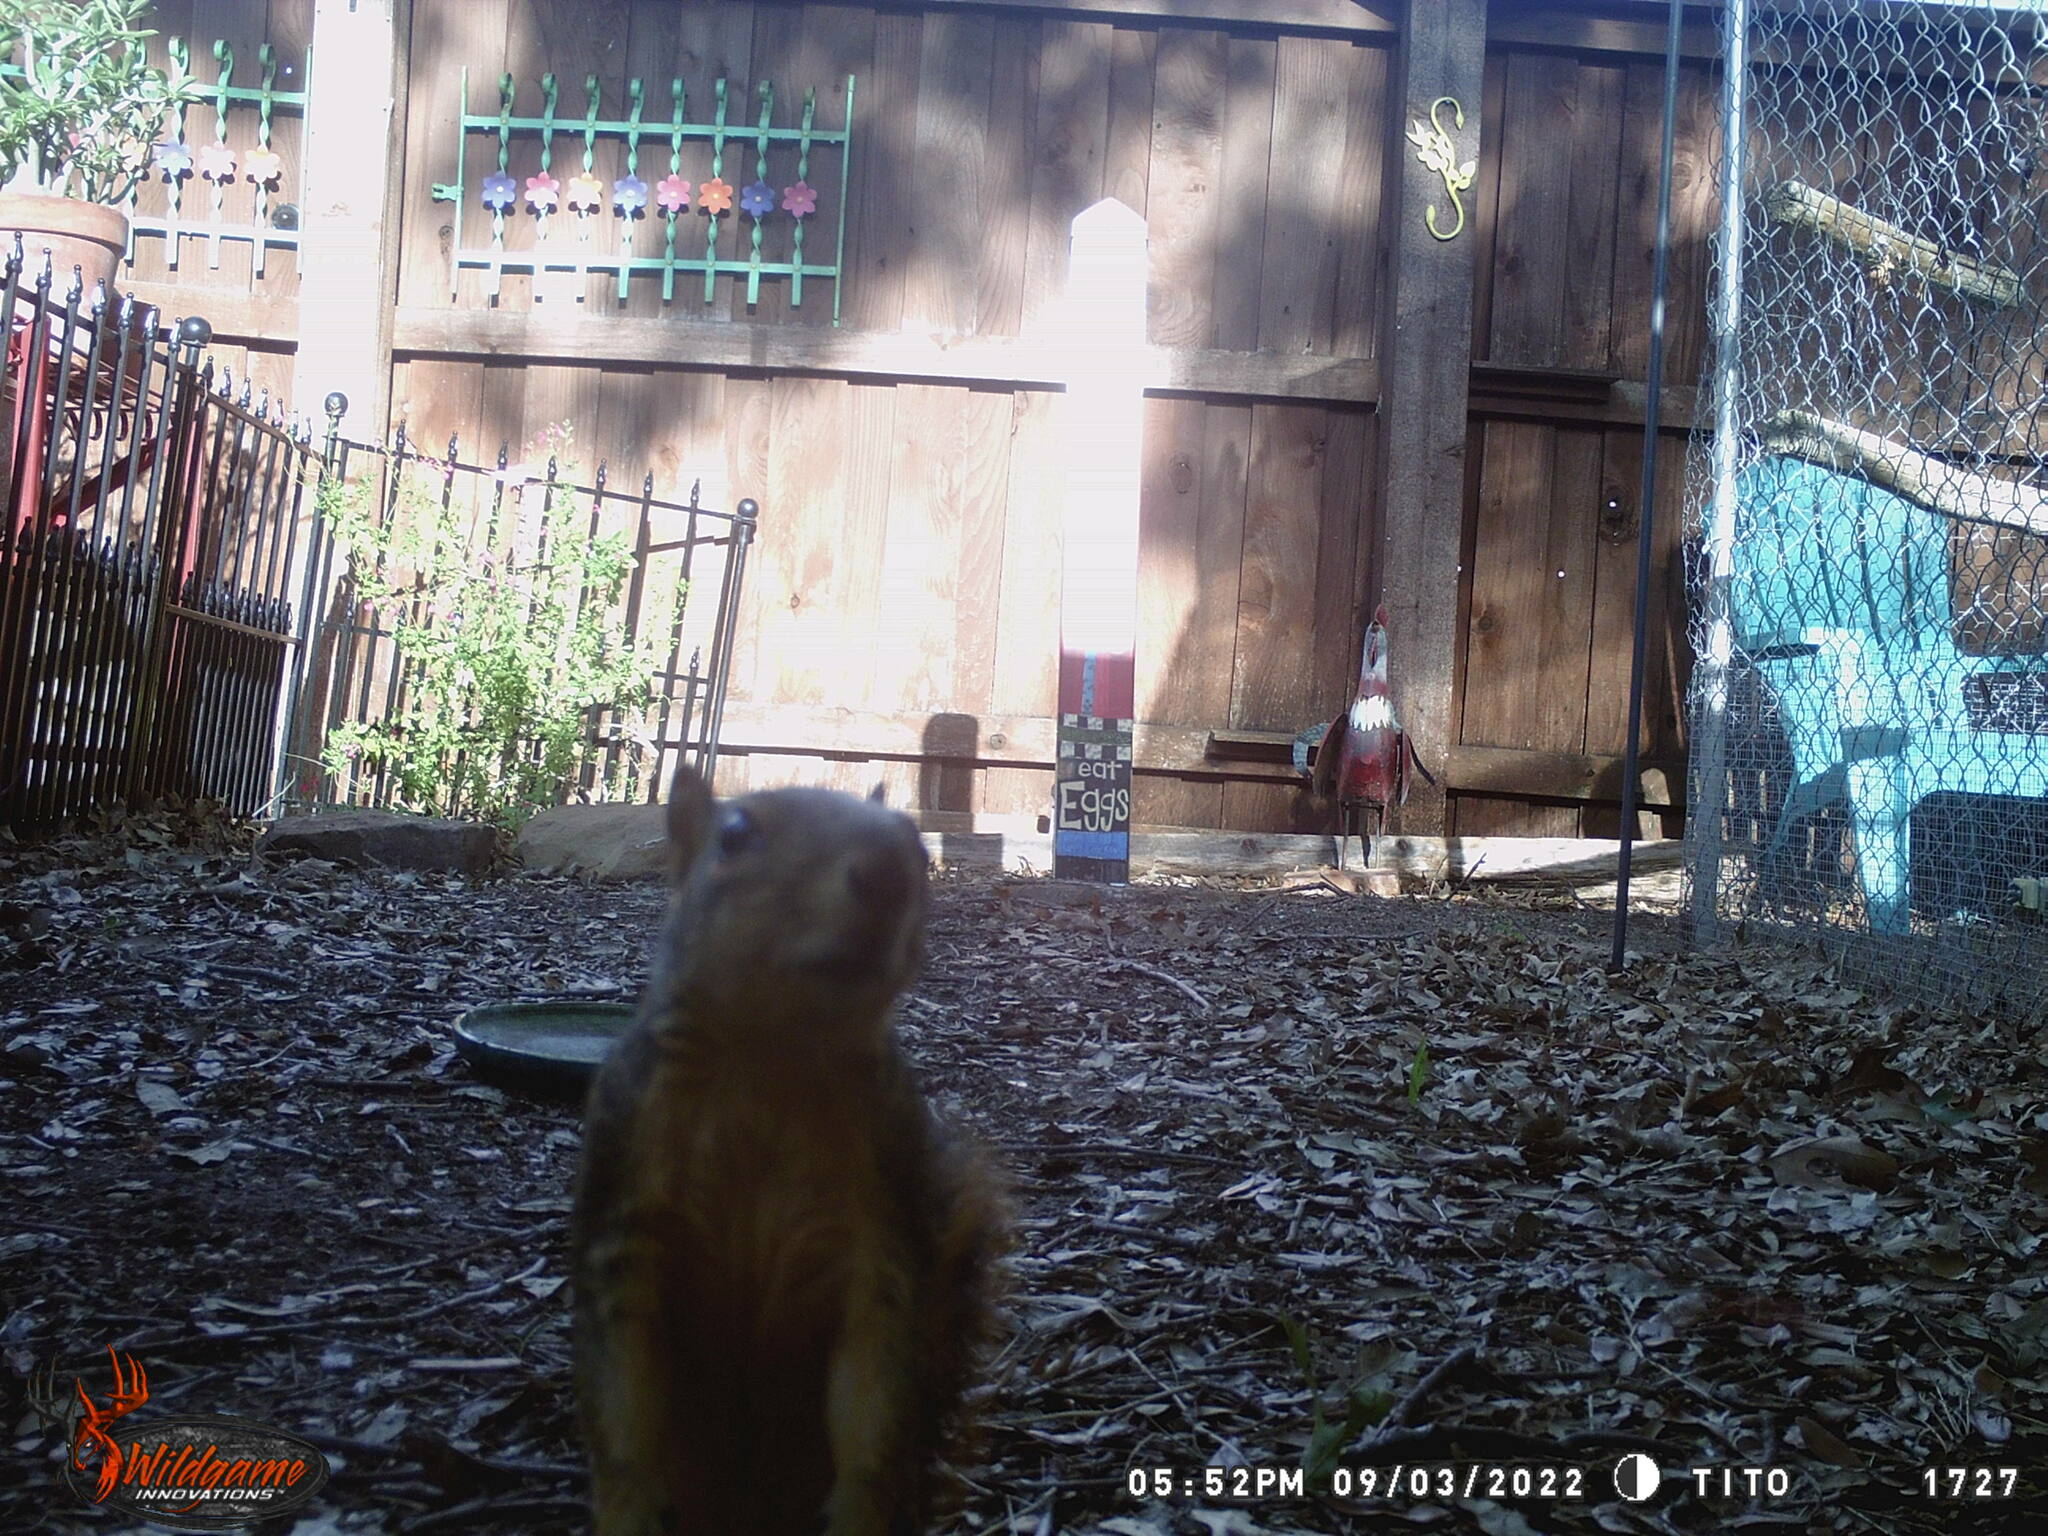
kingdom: Animalia
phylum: Chordata
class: Mammalia
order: Rodentia
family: Sciuridae
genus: Sciurus
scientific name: Sciurus niger
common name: Fox squirrel
